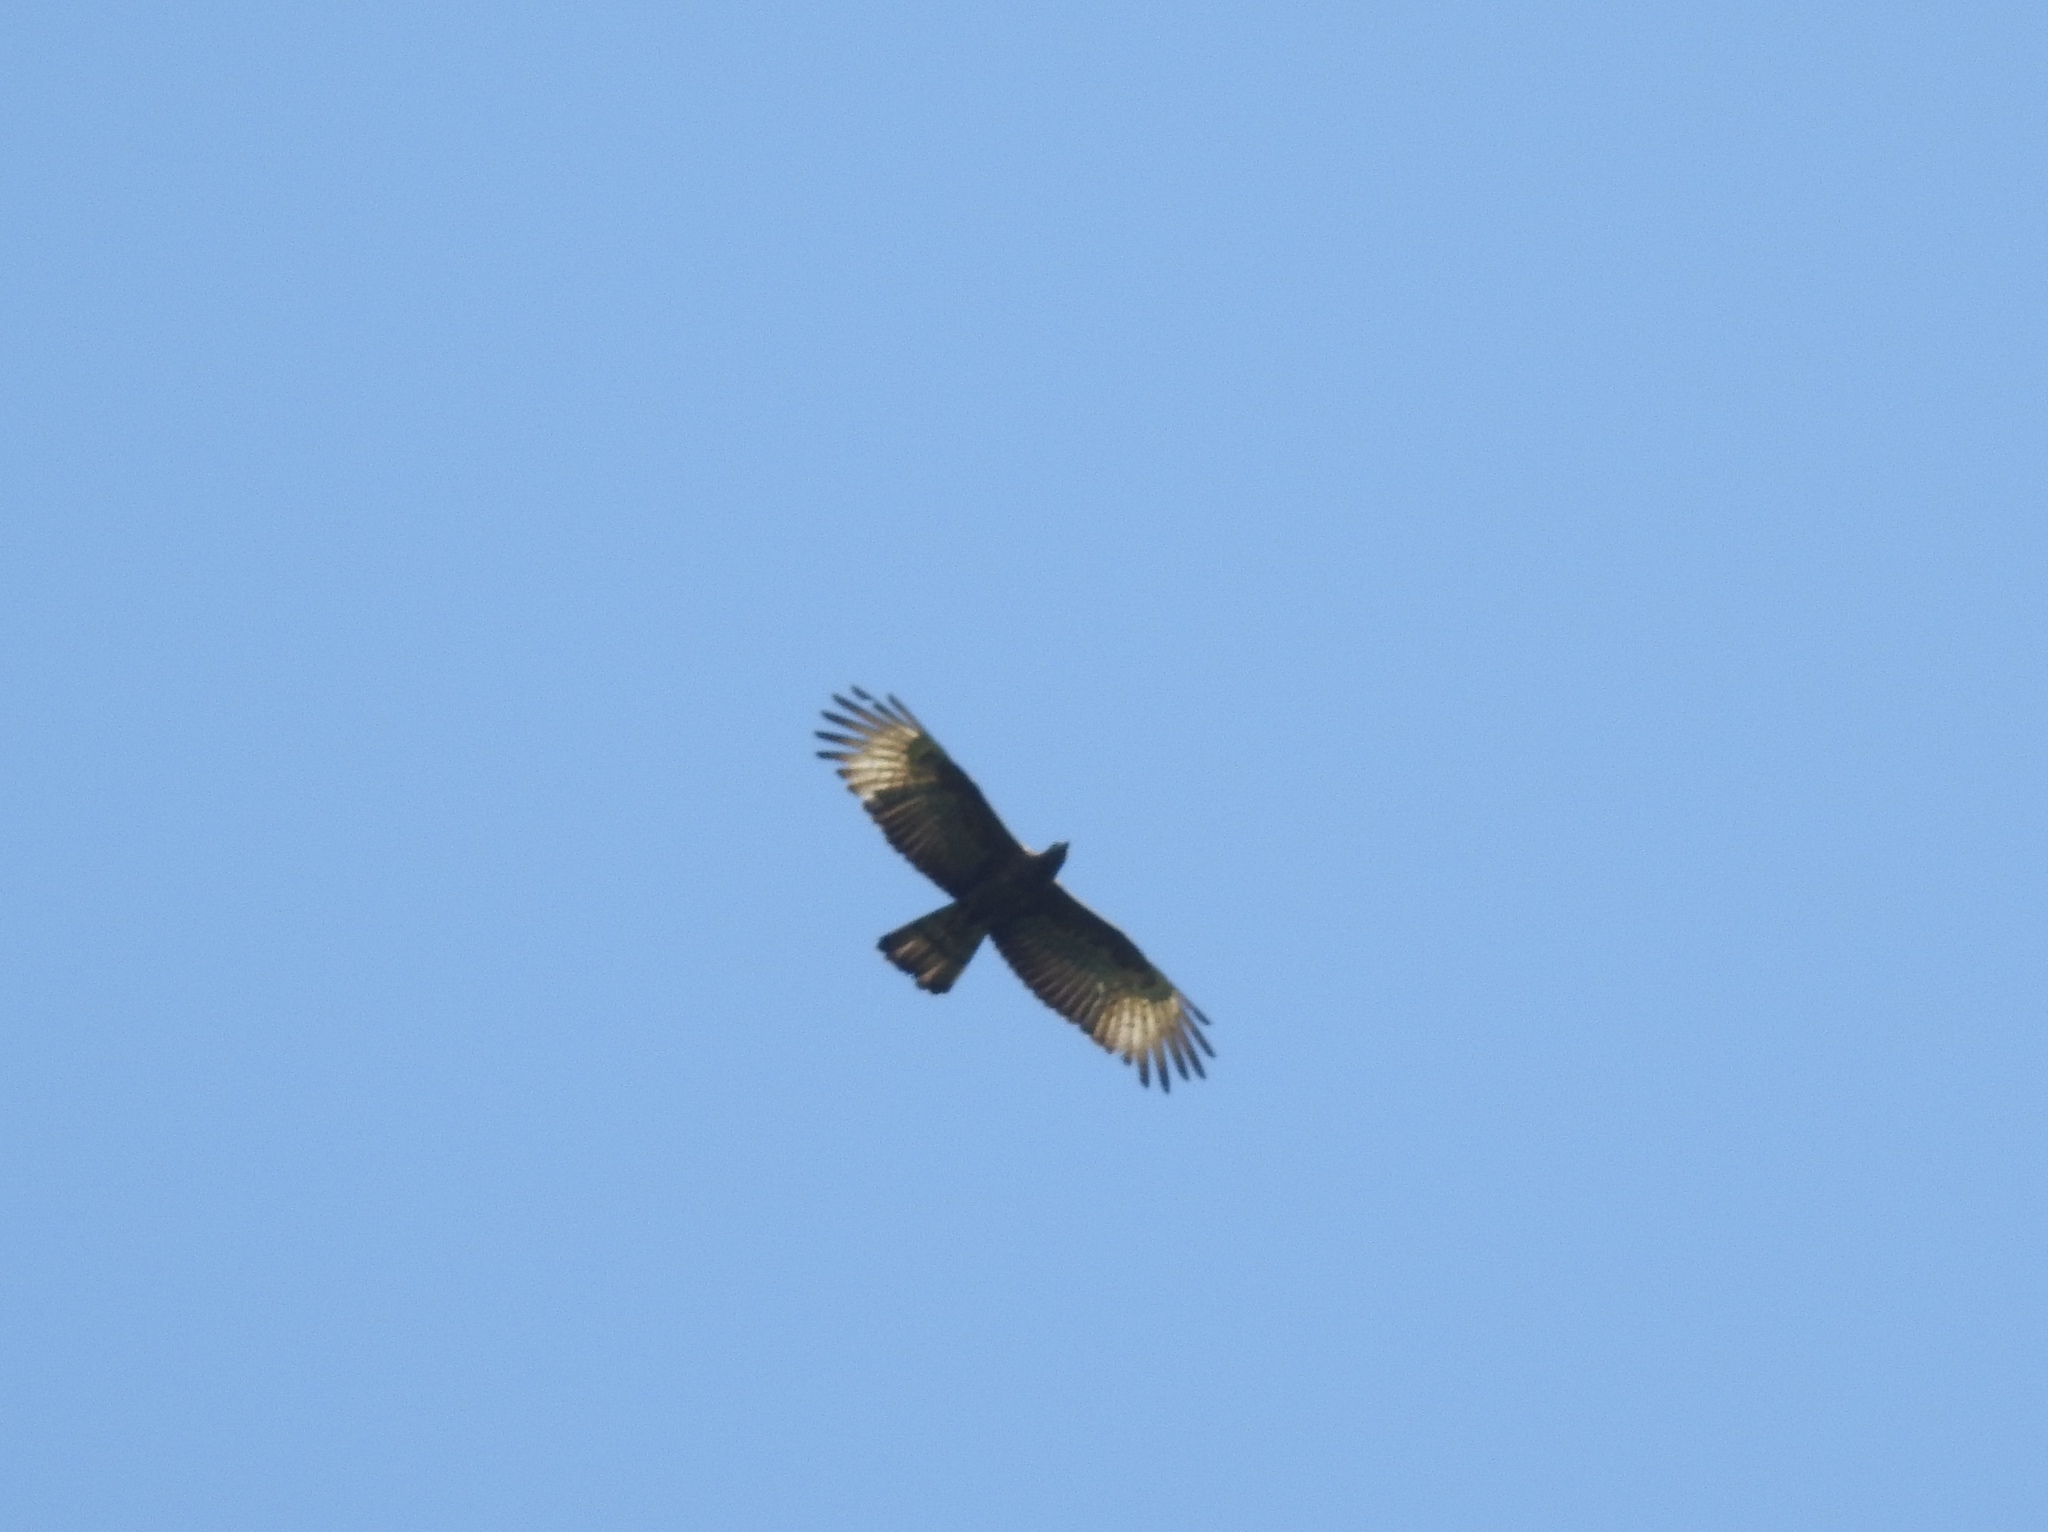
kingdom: Animalia
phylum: Chordata
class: Aves
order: Accipitriformes
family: Accipitridae
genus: Pernis
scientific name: Pernis ptilorhynchus
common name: Crested honey buzzard
